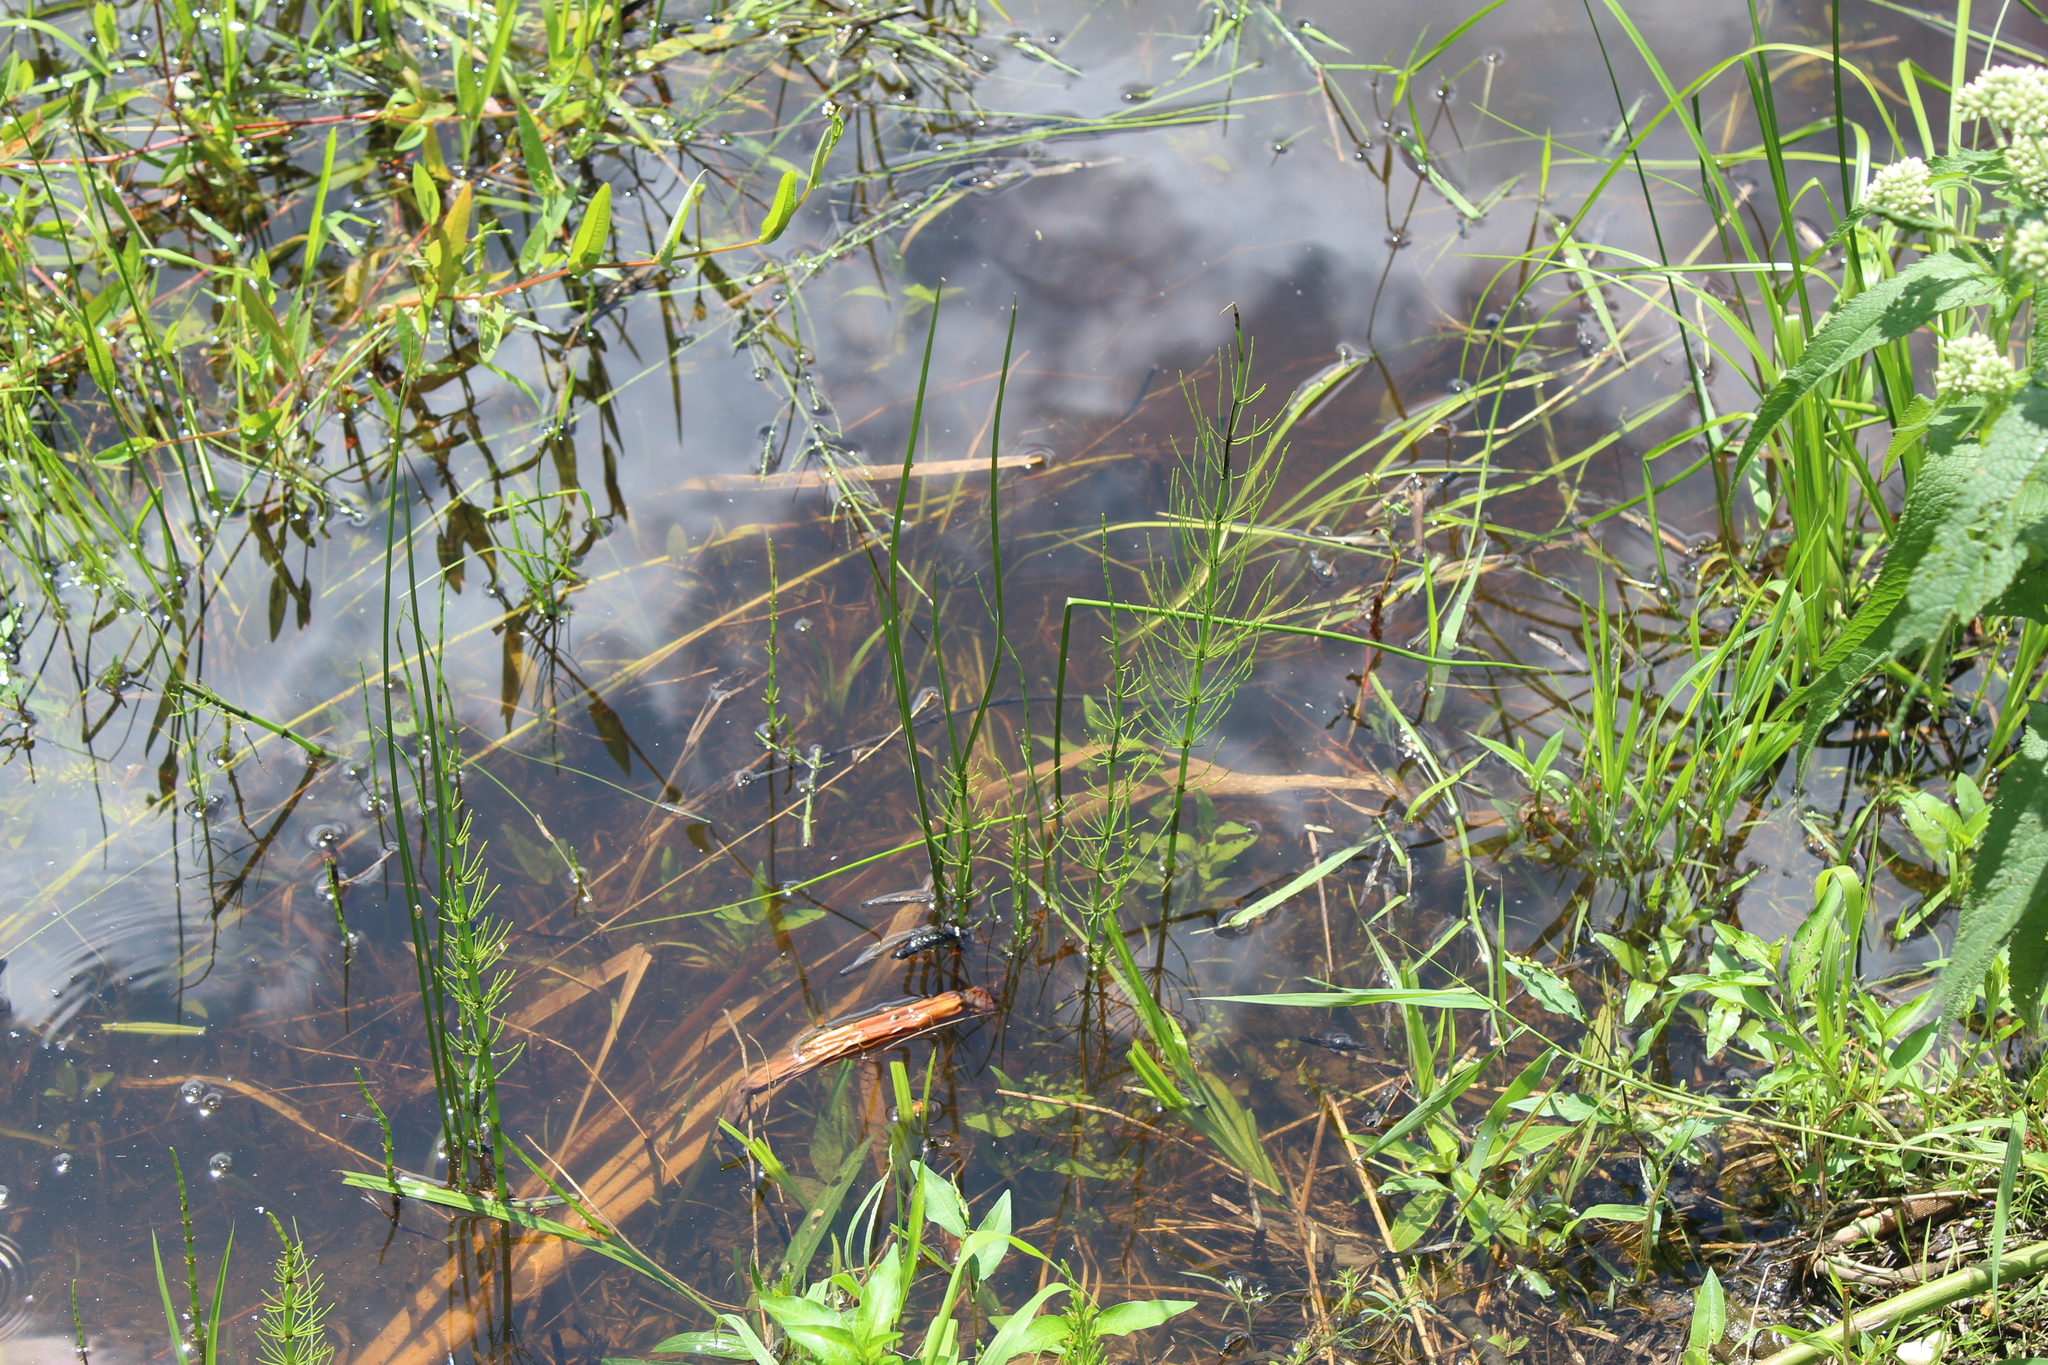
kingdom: Plantae
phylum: Tracheophyta
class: Polypodiopsida
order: Equisetales
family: Equisetaceae
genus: Equisetum
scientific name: Equisetum fluviatile
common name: Water horsetail
